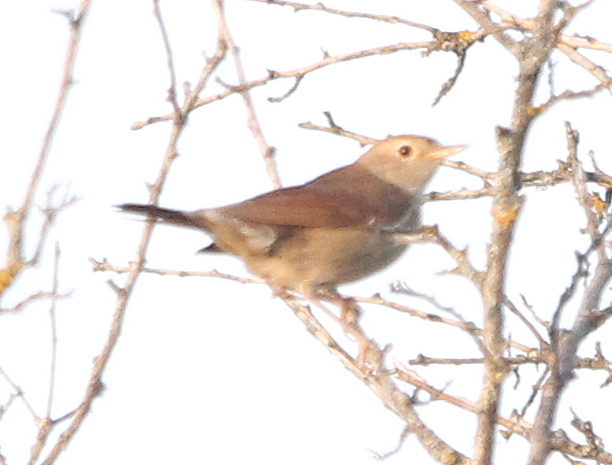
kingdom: Animalia
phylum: Chordata
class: Aves
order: Passeriformes
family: Muscicapidae
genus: Luscinia
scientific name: Luscinia megarhynchos
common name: Common nightingale
